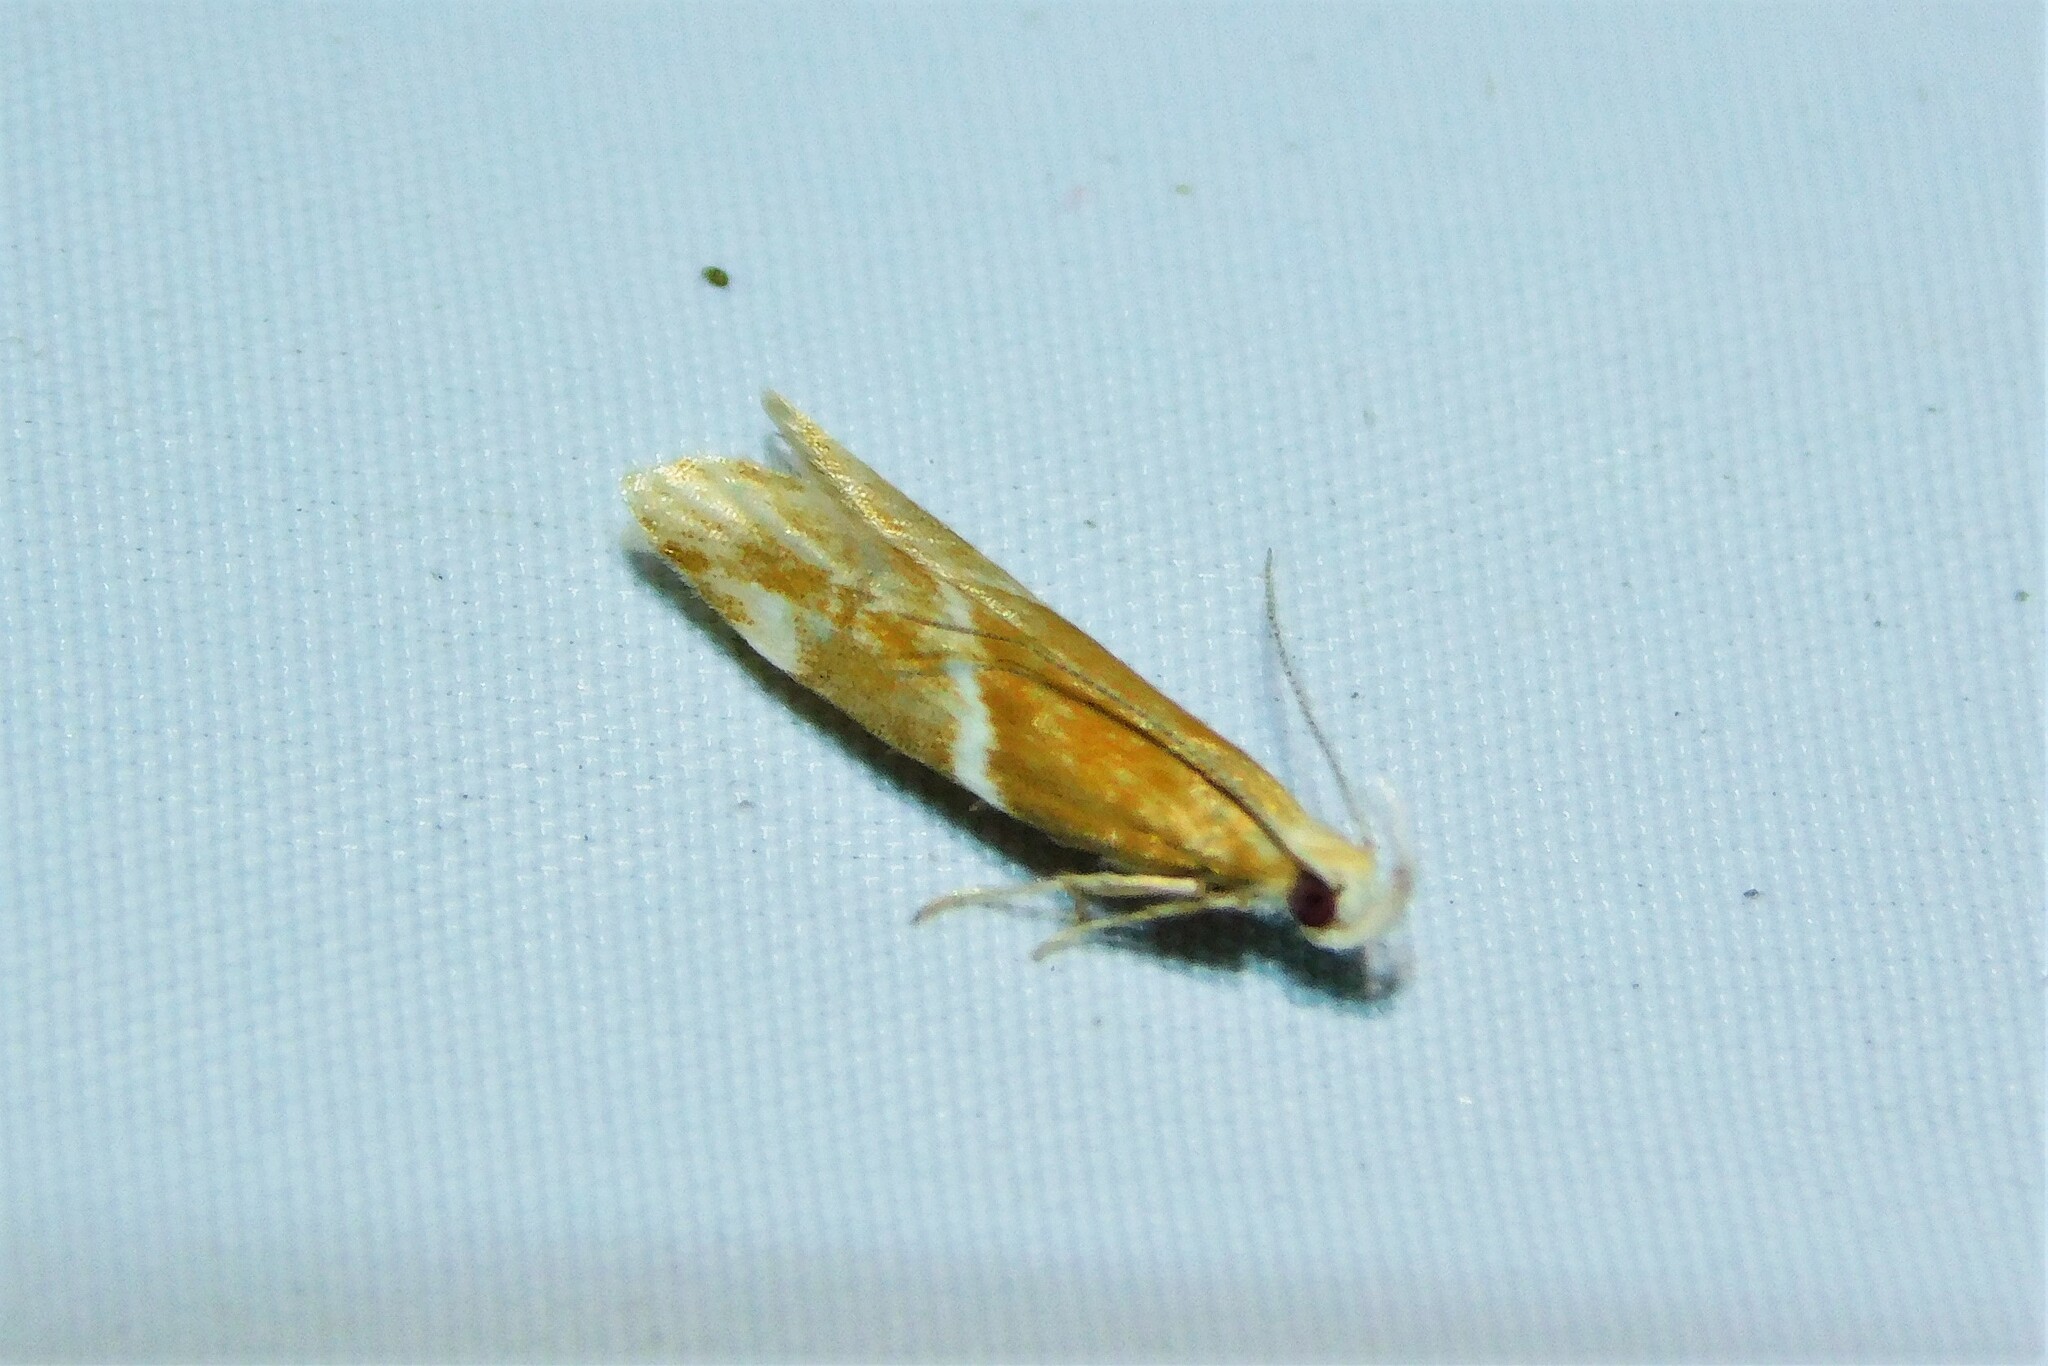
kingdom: Animalia
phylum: Arthropoda
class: Insecta
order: Lepidoptera
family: Depressariidae
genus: Orophia
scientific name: Orophia sordidella
